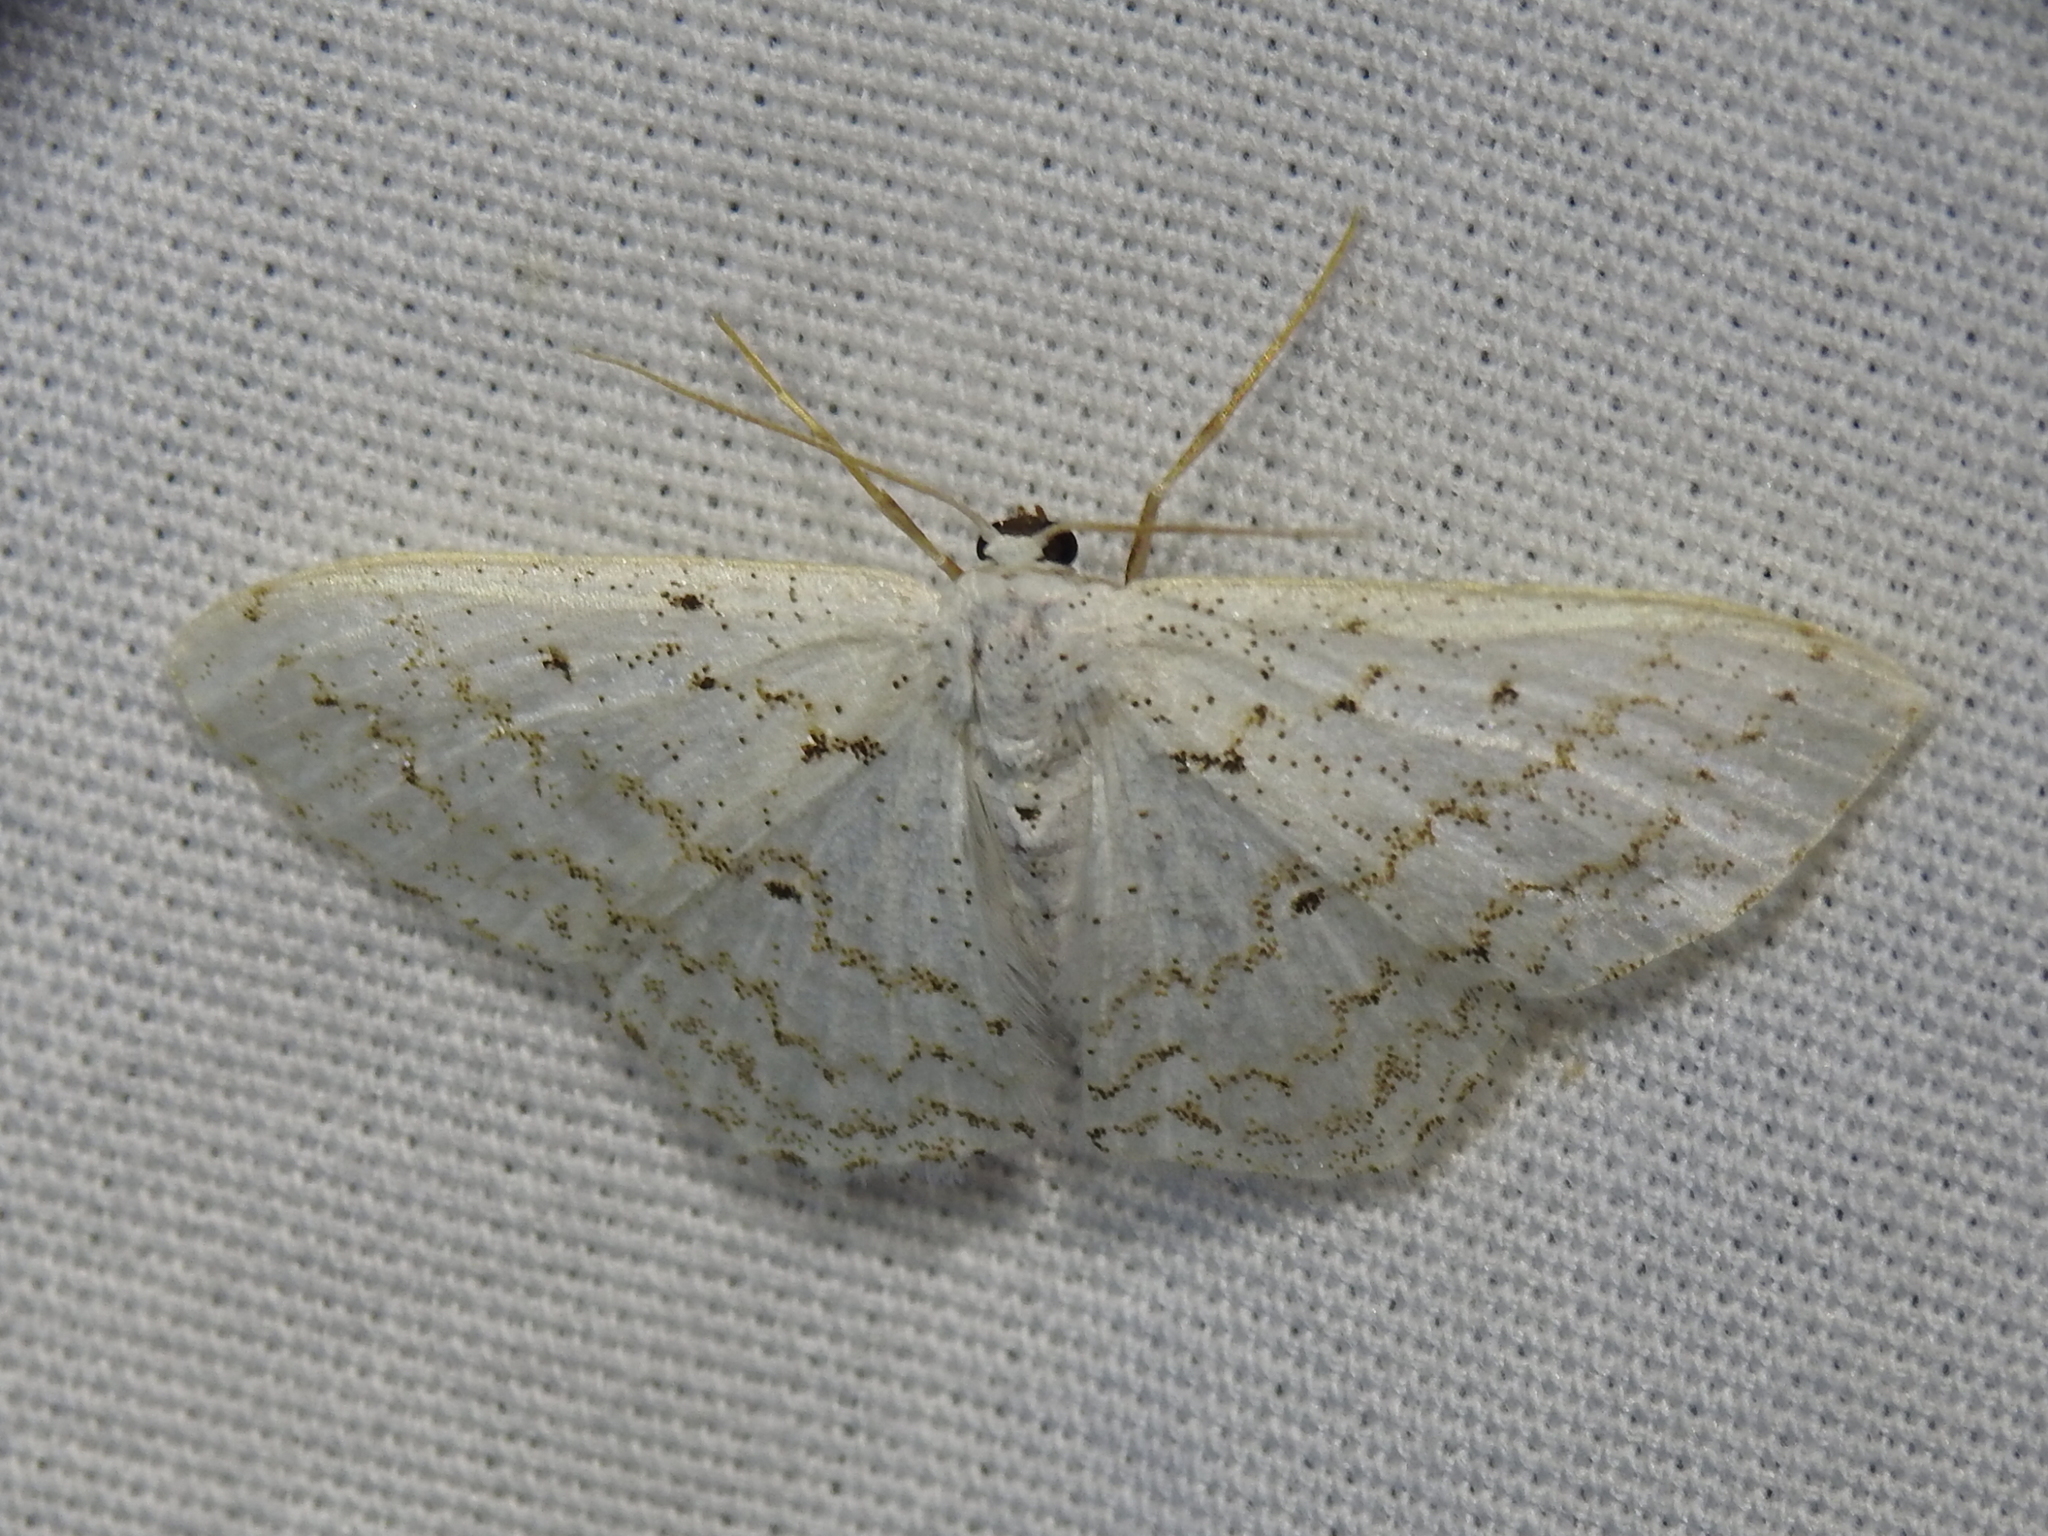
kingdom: Animalia
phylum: Arthropoda
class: Insecta
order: Lepidoptera
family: Geometridae
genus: Idaea
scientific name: Idaea tacturata
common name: Dot-lined wave
